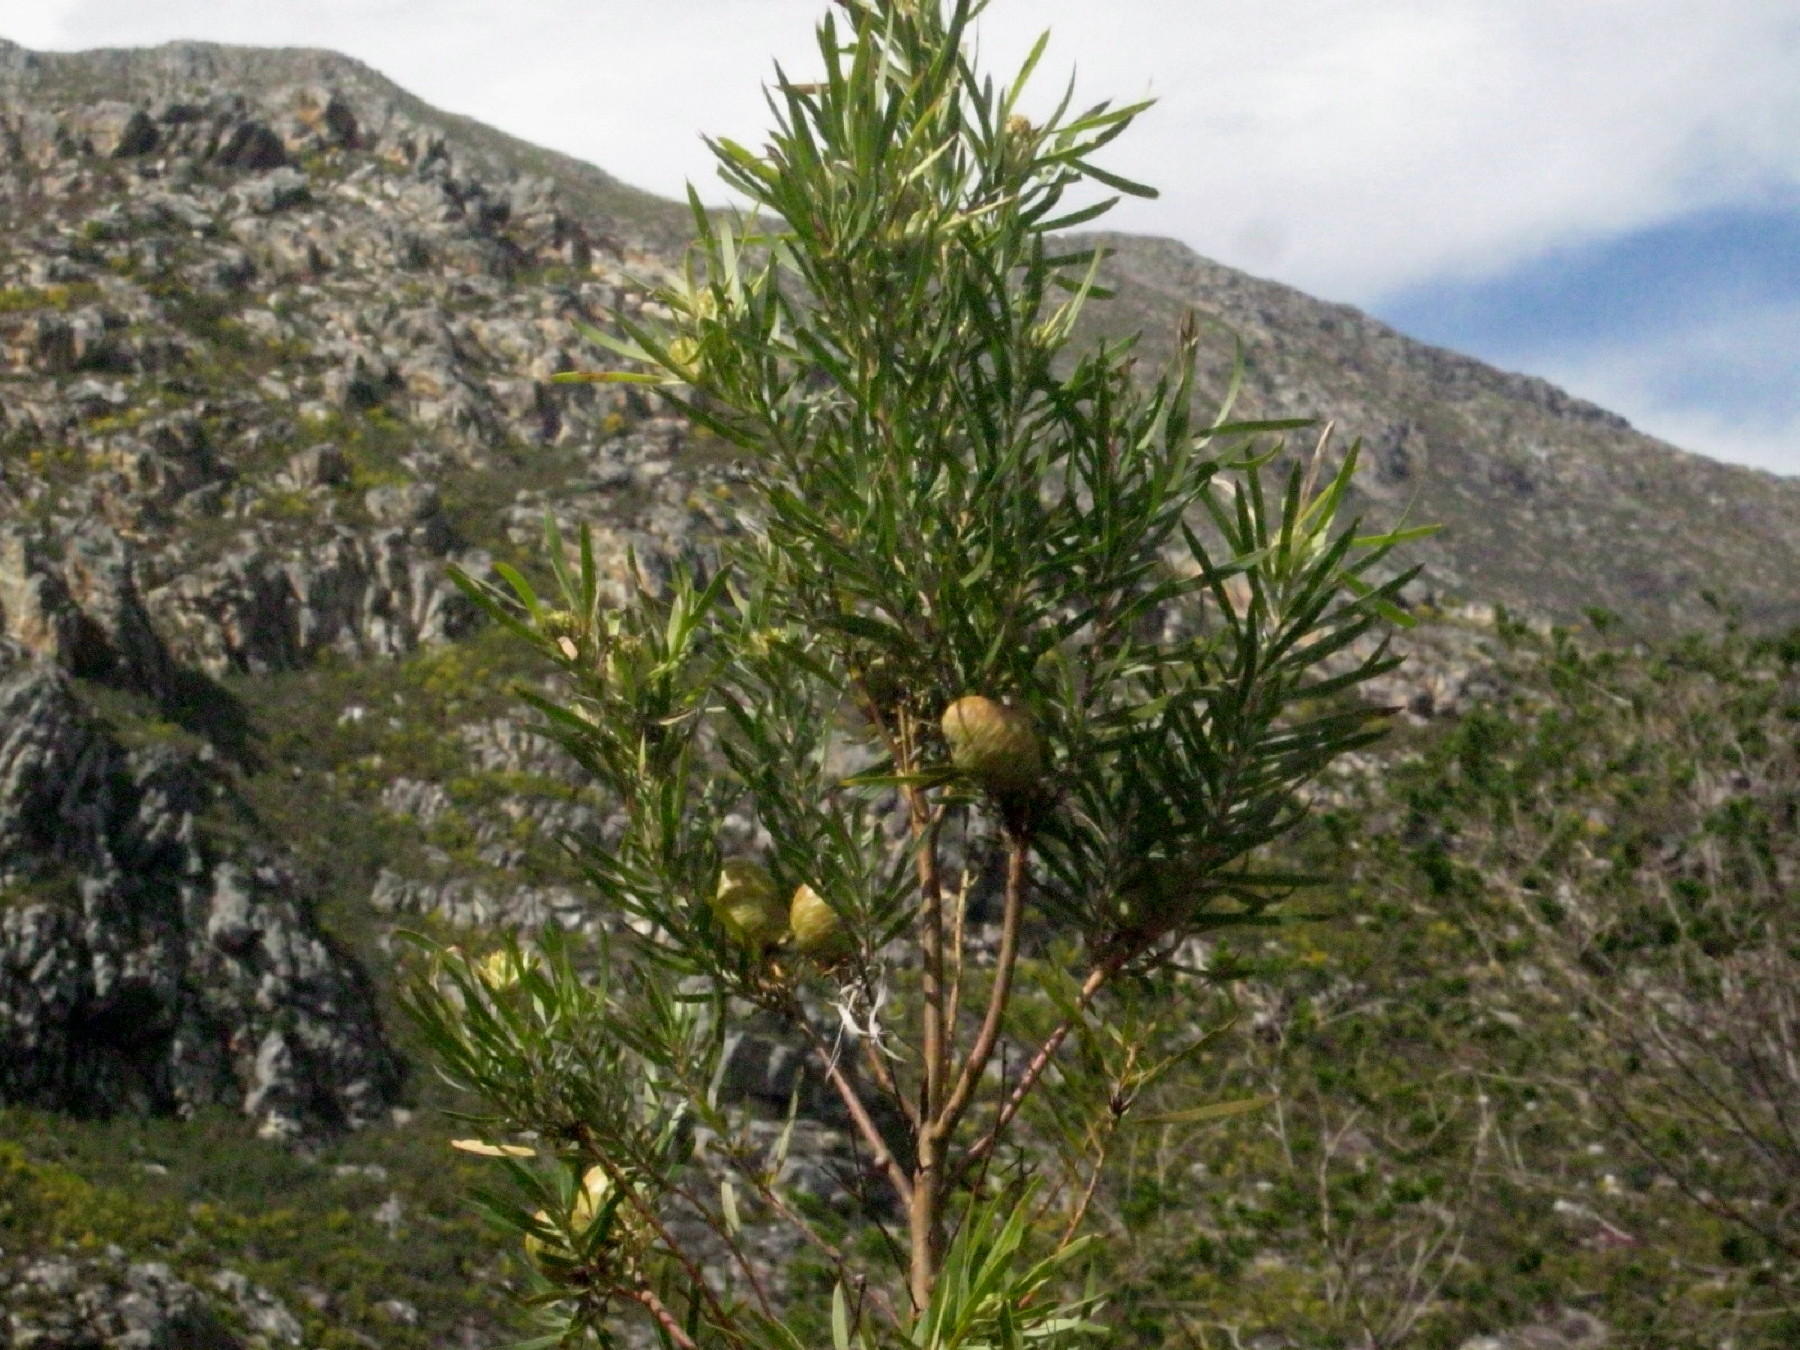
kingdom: Plantae
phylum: Tracheophyta
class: Magnoliopsida
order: Proteales
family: Proteaceae
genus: Leucadendron
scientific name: Leucadendron salicifolium
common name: Common stream conebush
